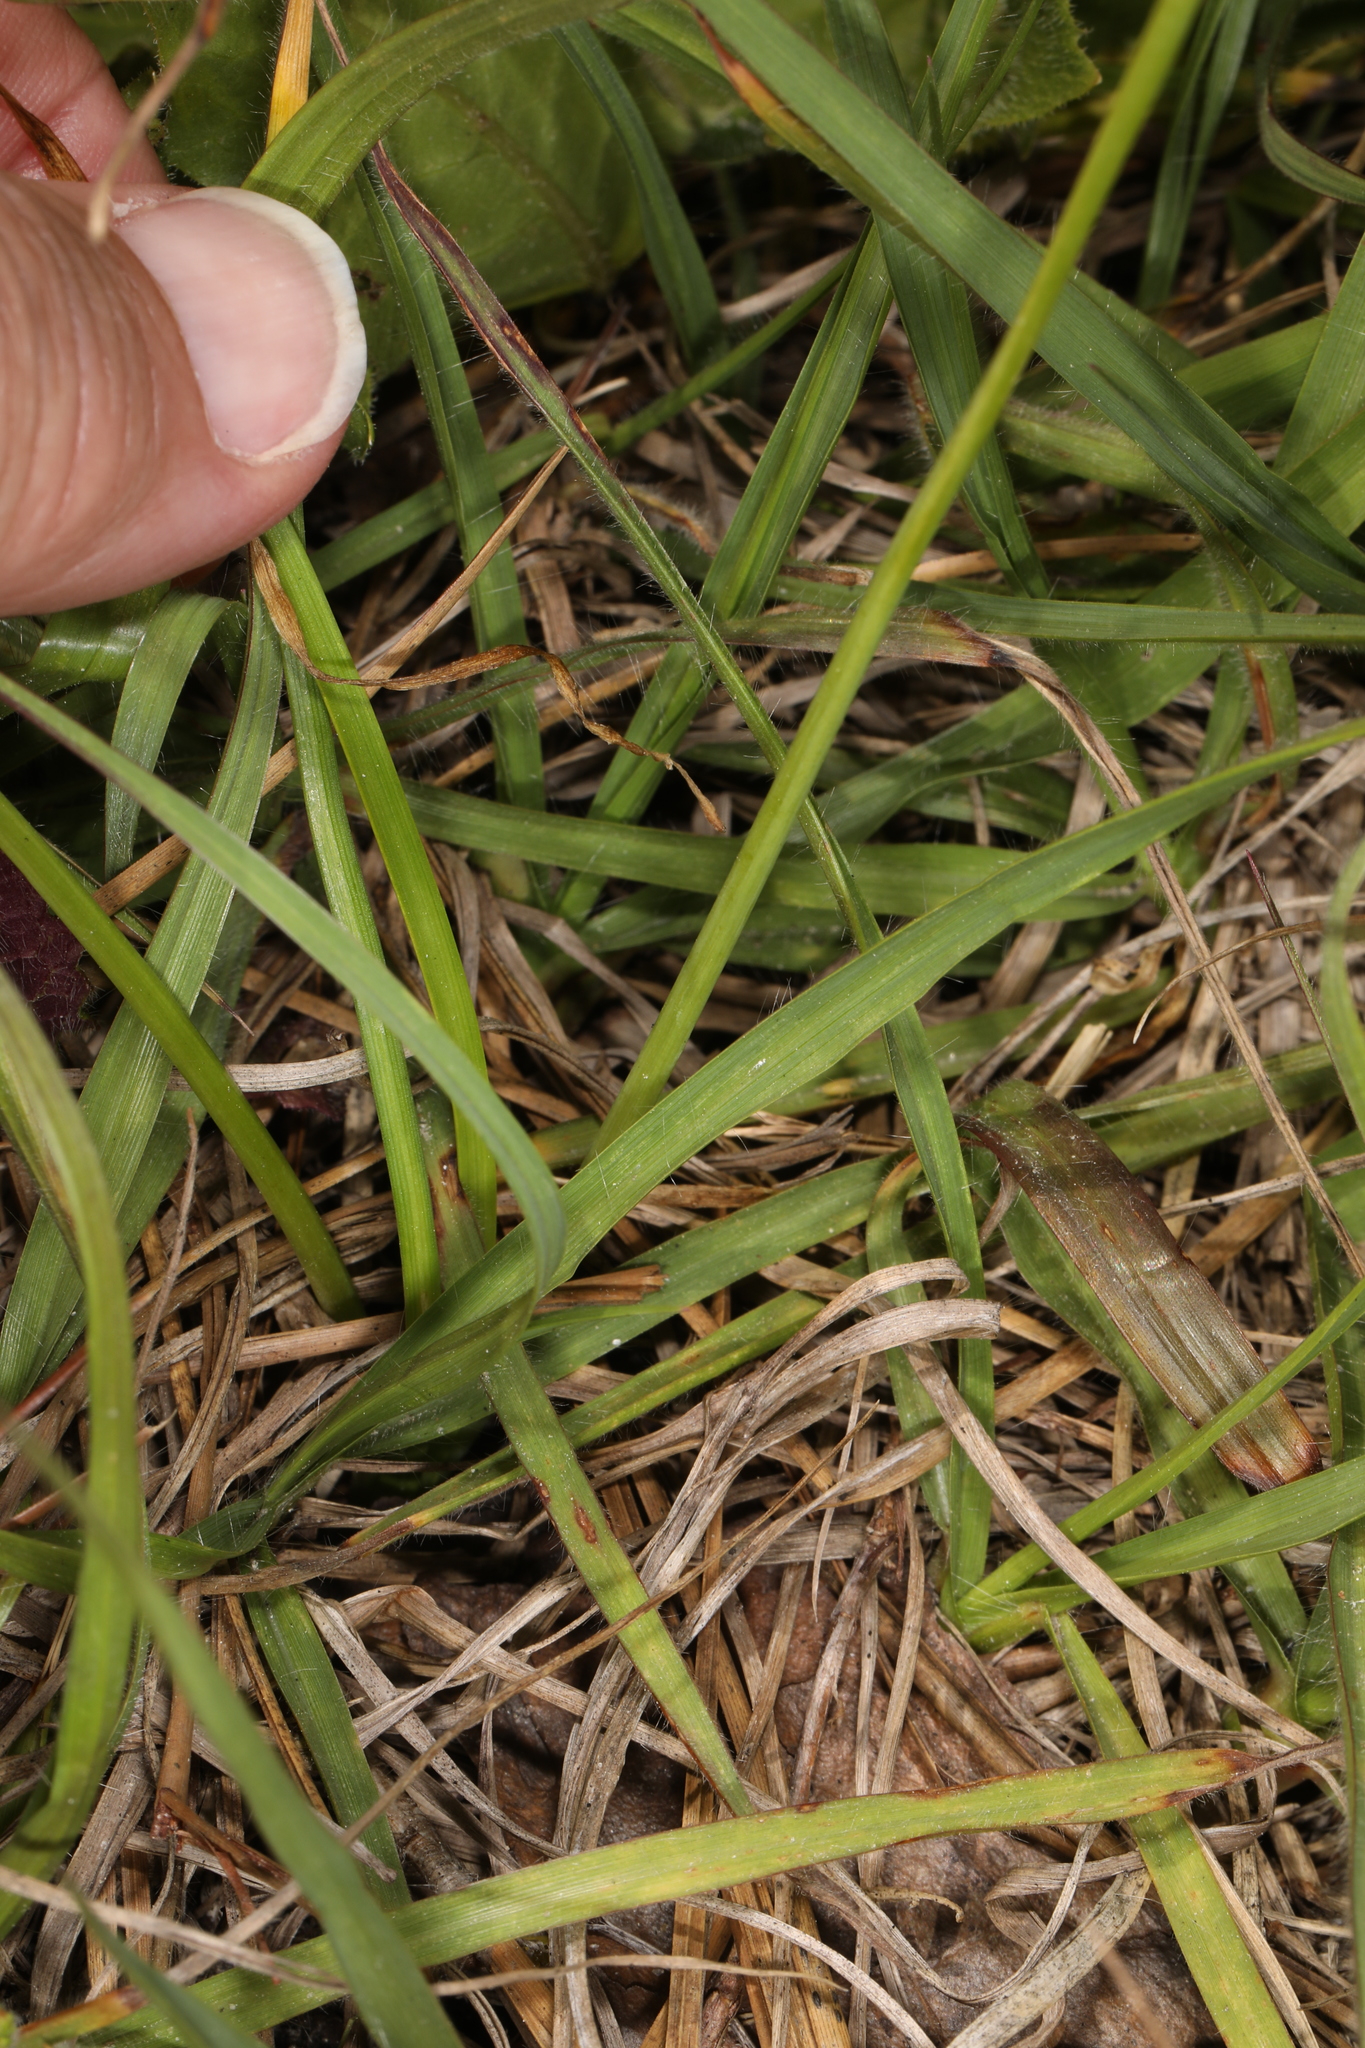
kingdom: Plantae
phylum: Tracheophyta
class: Liliopsida
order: Asparagales
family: Amaryllidaceae
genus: Nothoscordum
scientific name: Nothoscordum bivalve
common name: Crow-poison
